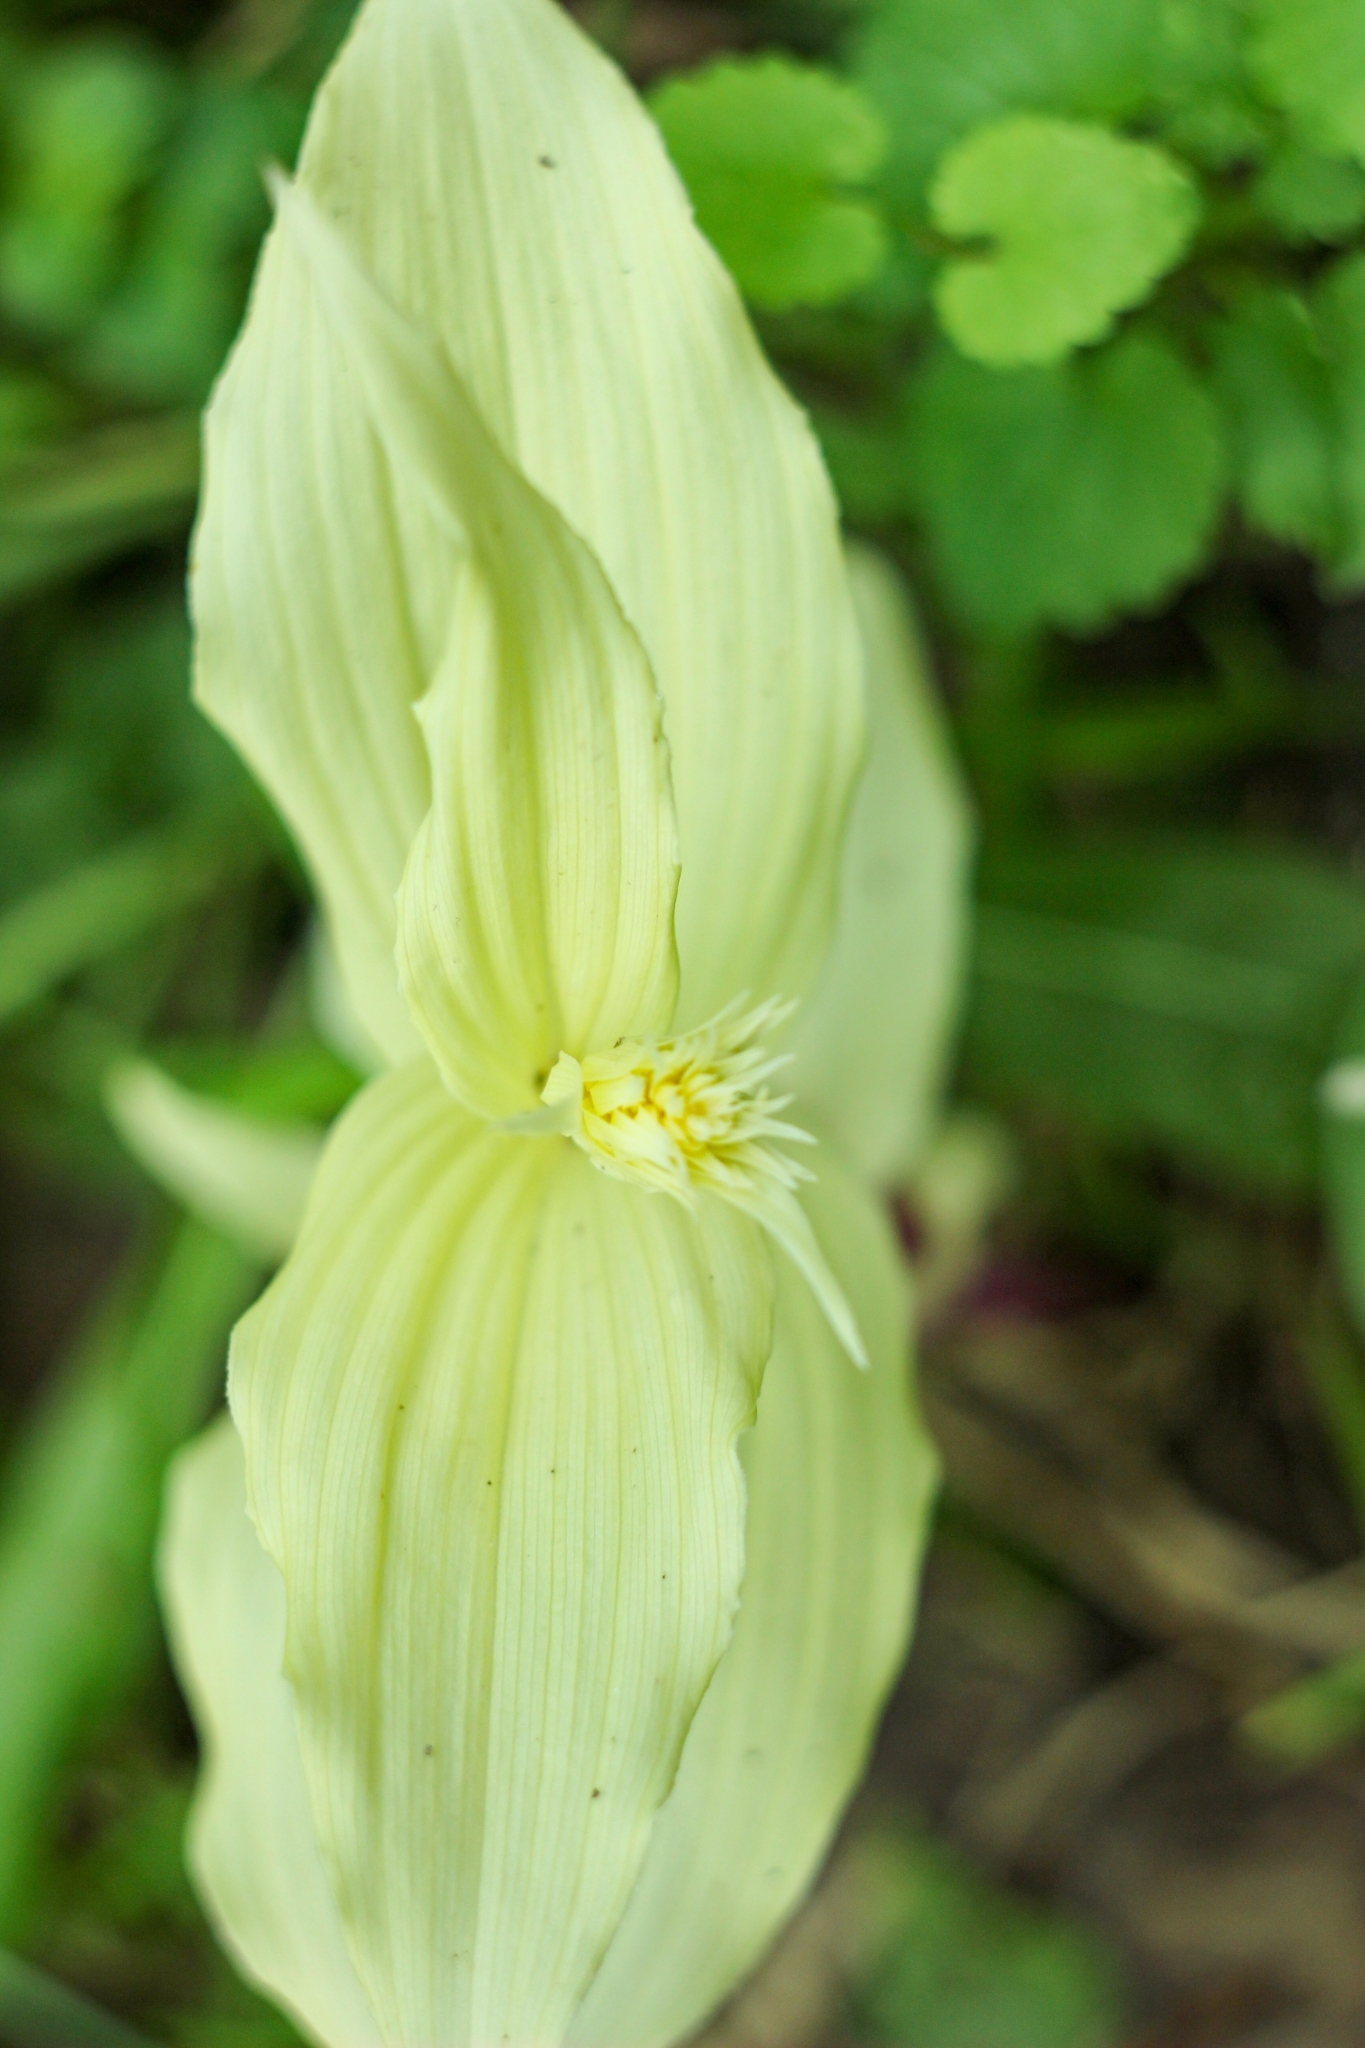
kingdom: Plantae
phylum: Tracheophyta
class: Liliopsida
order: Asparagales
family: Orchidaceae
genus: Epipactis
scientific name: Epipactis helleborine
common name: Broad-leaved helleborine
